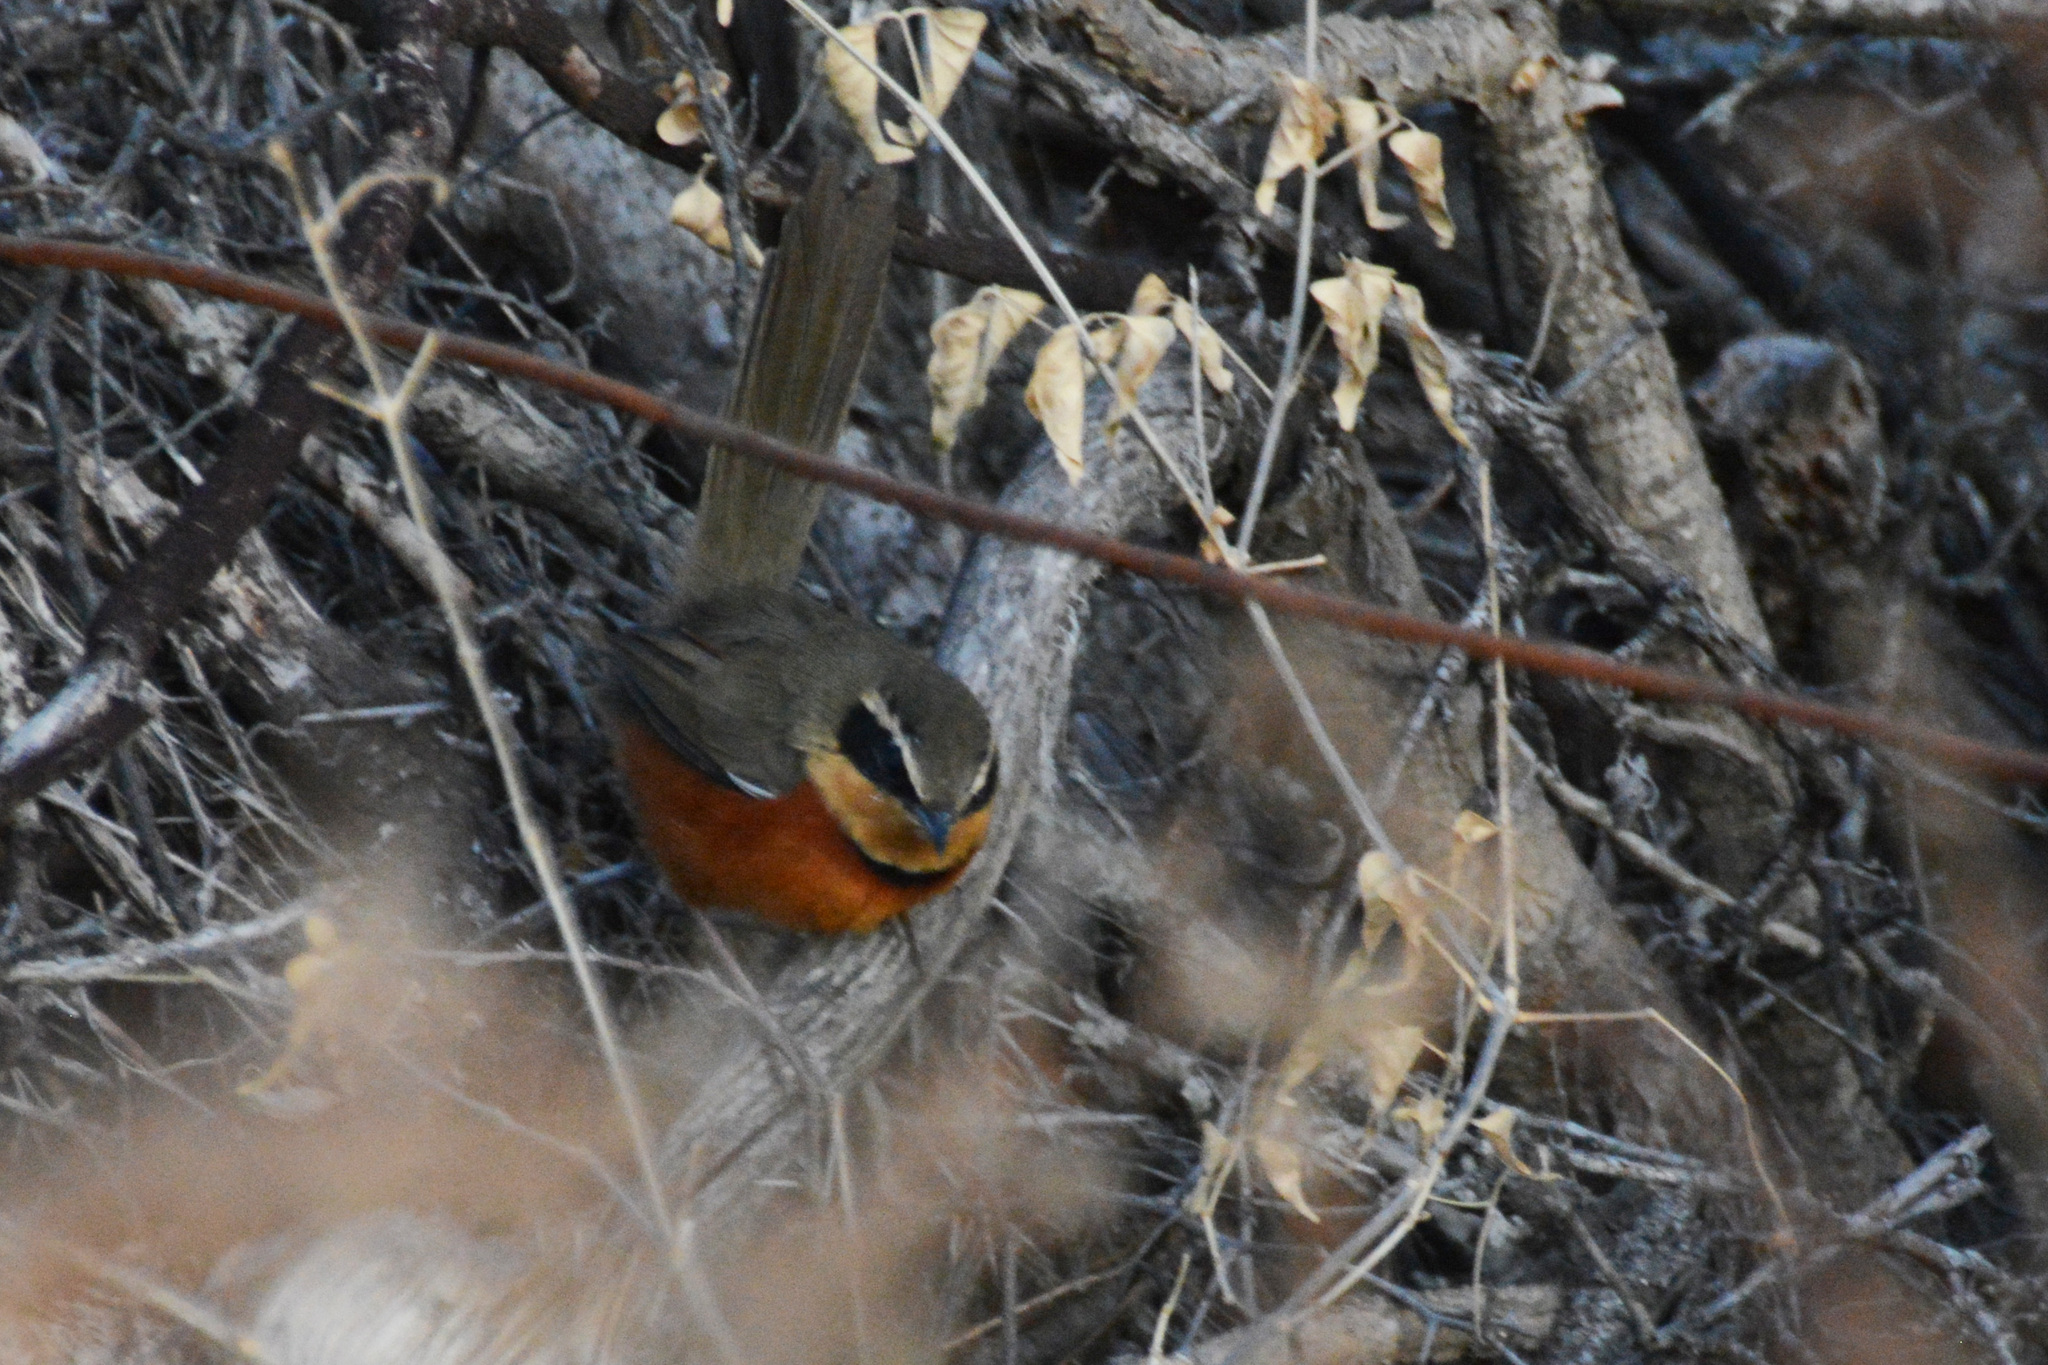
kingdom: Animalia
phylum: Chordata
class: Aves
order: Passeriformes
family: Melanopareiidae
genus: Melanopareia
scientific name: Melanopareia maximiliani
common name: Olive-crowned crescentchest
